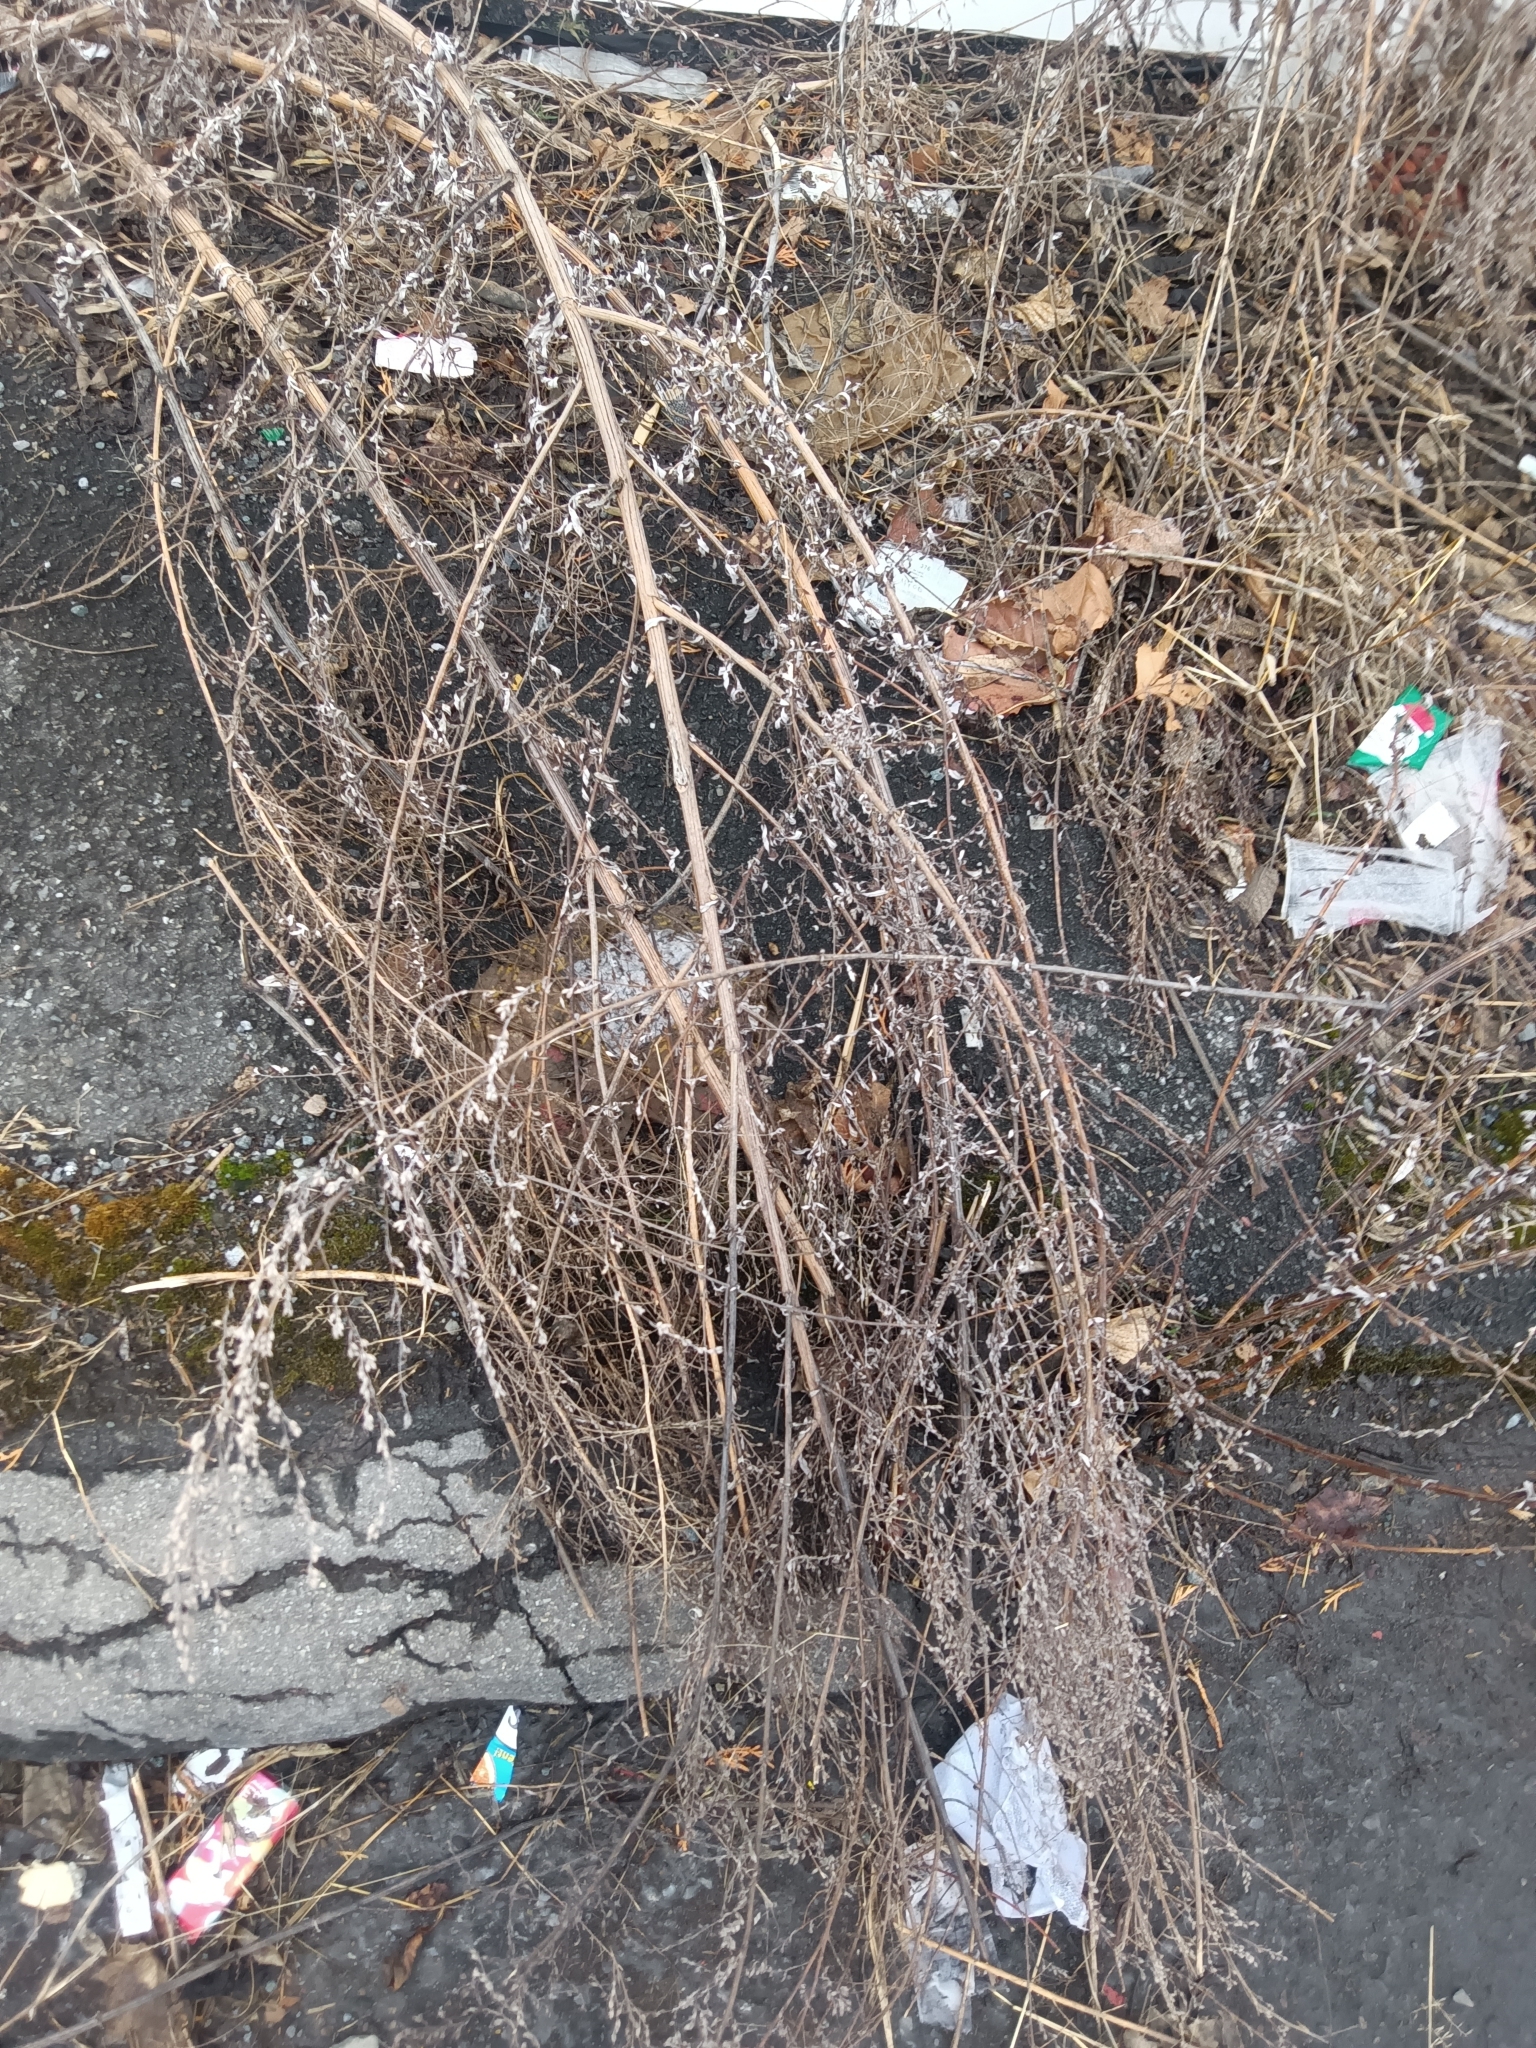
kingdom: Plantae
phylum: Tracheophyta
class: Magnoliopsida
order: Asterales
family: Asteraceae
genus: Artemisia
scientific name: Artemisia vulgaris
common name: Mugwort
